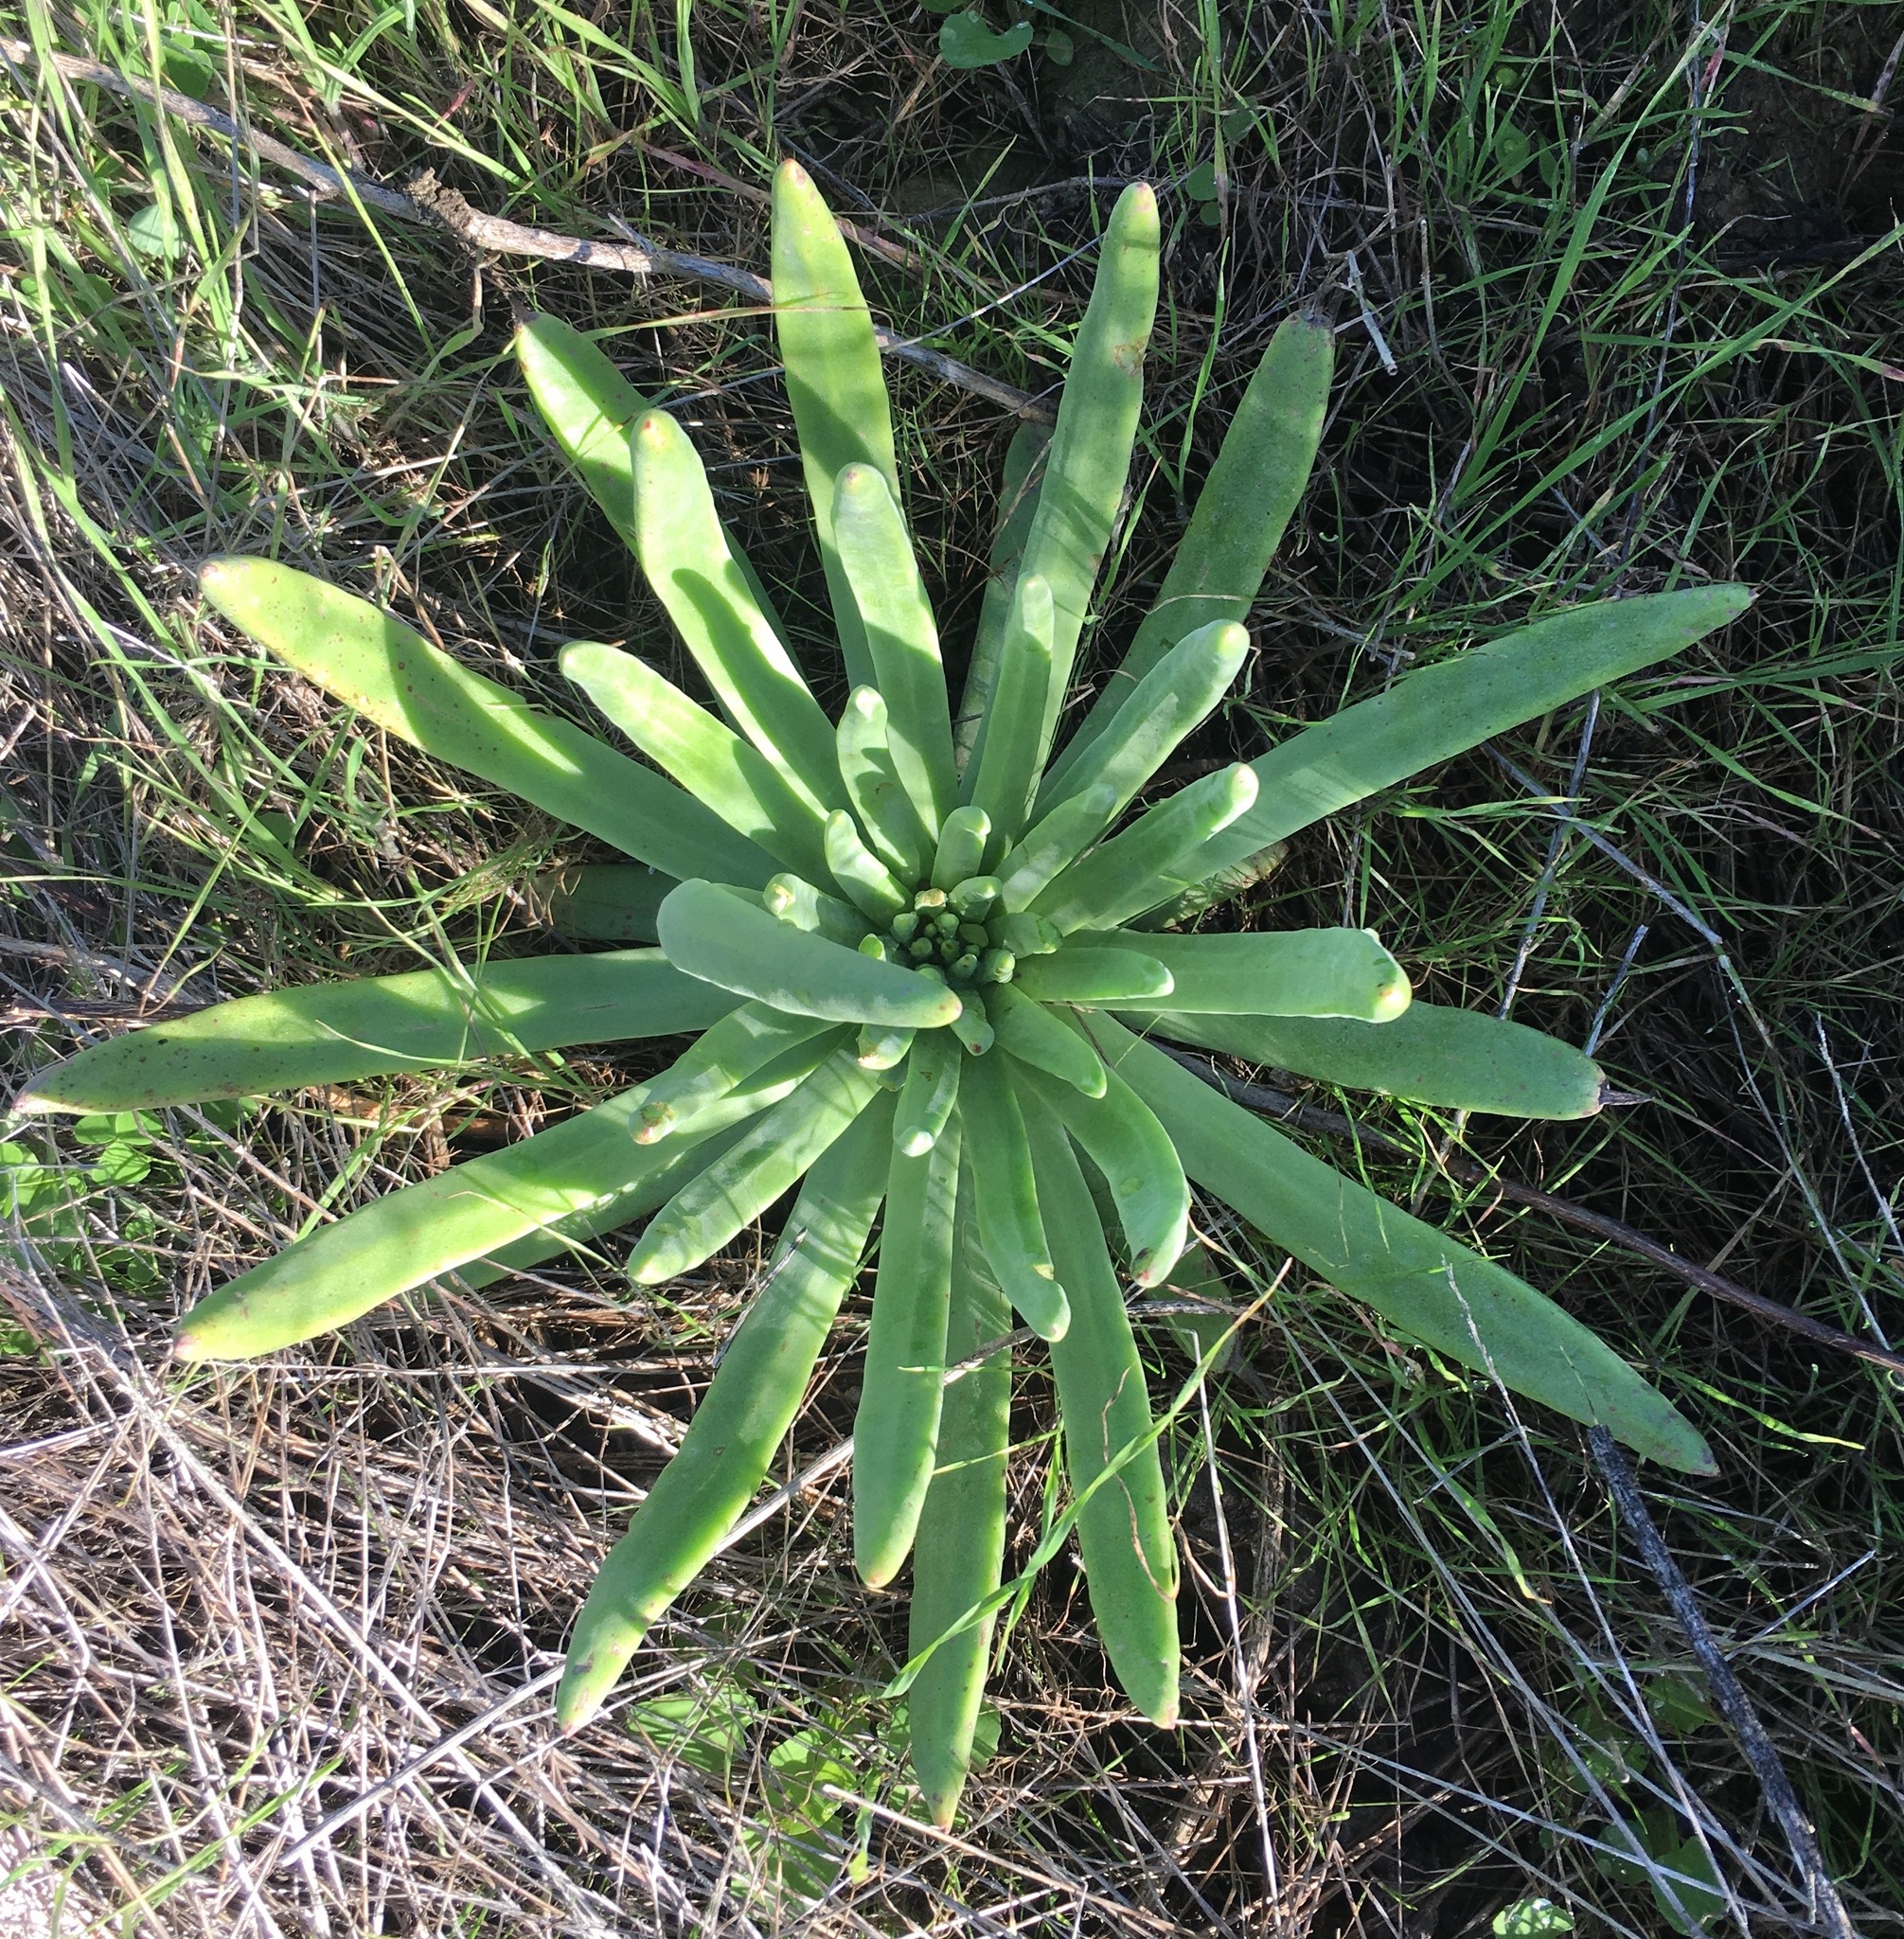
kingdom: Plantae
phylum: Tracheophyta
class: Magnoliopsida
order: Saxifragales
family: Crassulaceae
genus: Dudleya
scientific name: Dudleya virens
